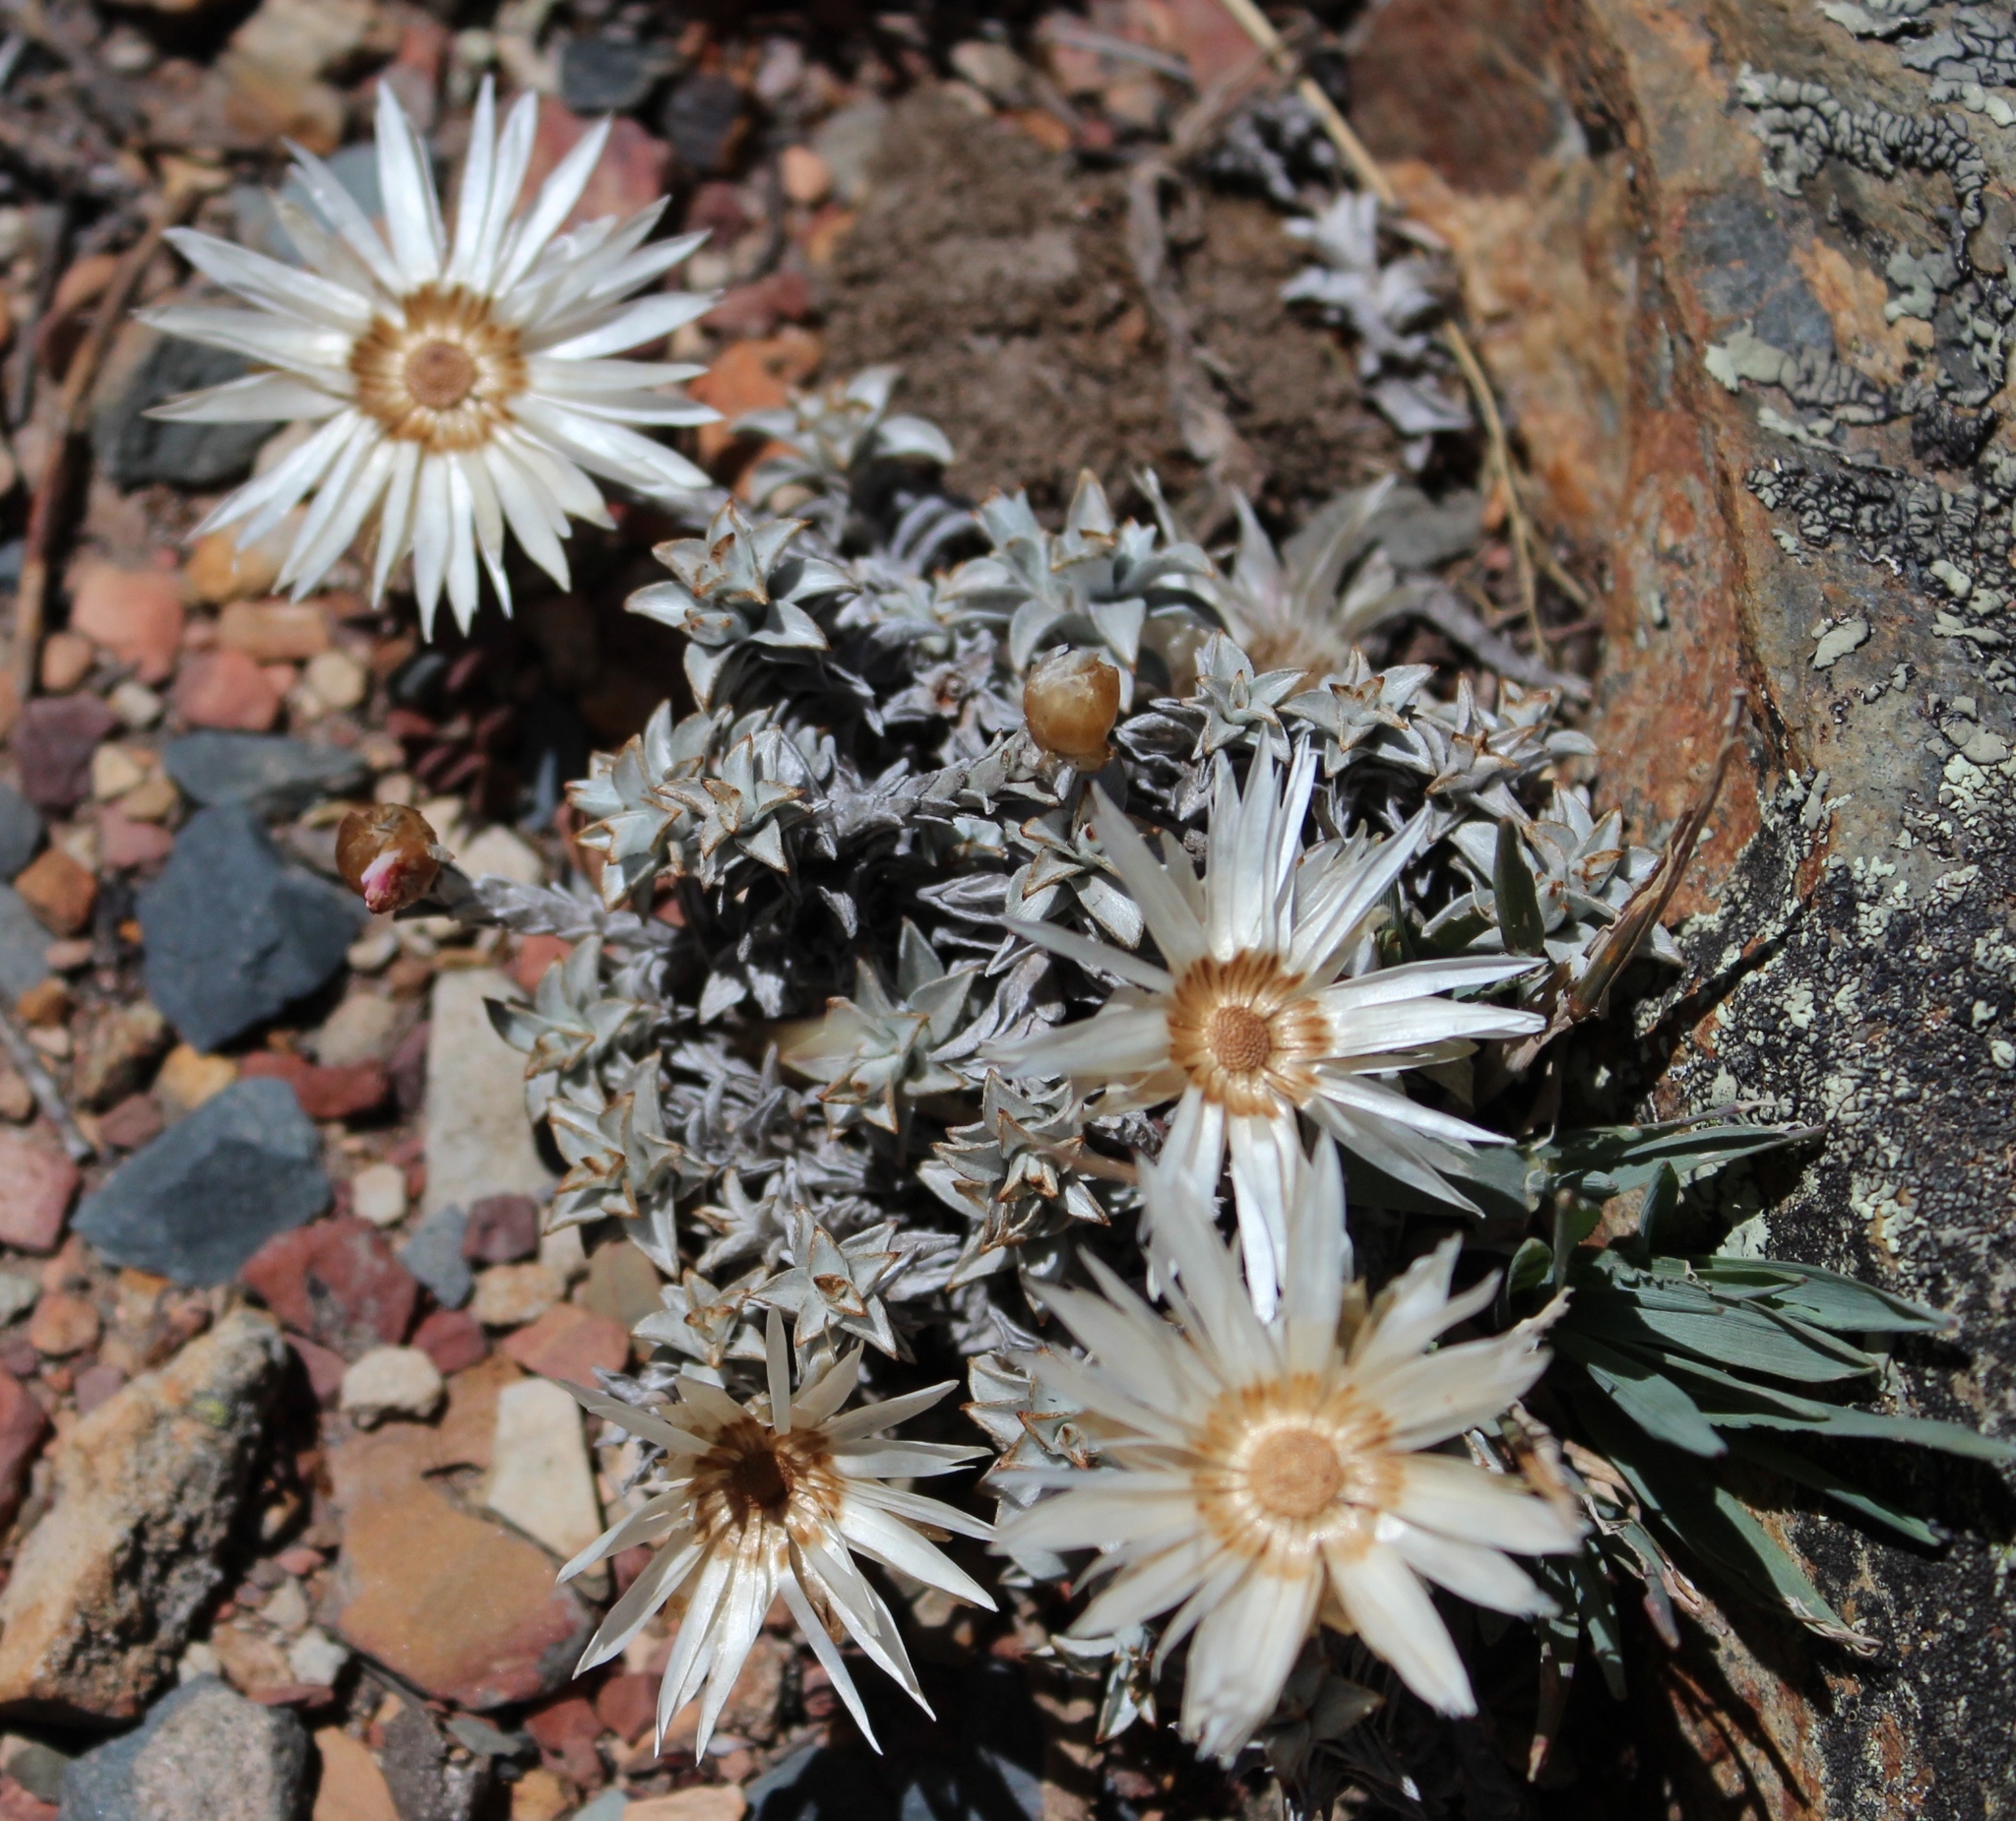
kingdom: Plantae
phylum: Tracheophyta
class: Magnoliopsida
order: Asterales
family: Asteraceae
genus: Helichrysum
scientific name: Helichrysum stoloniferum
